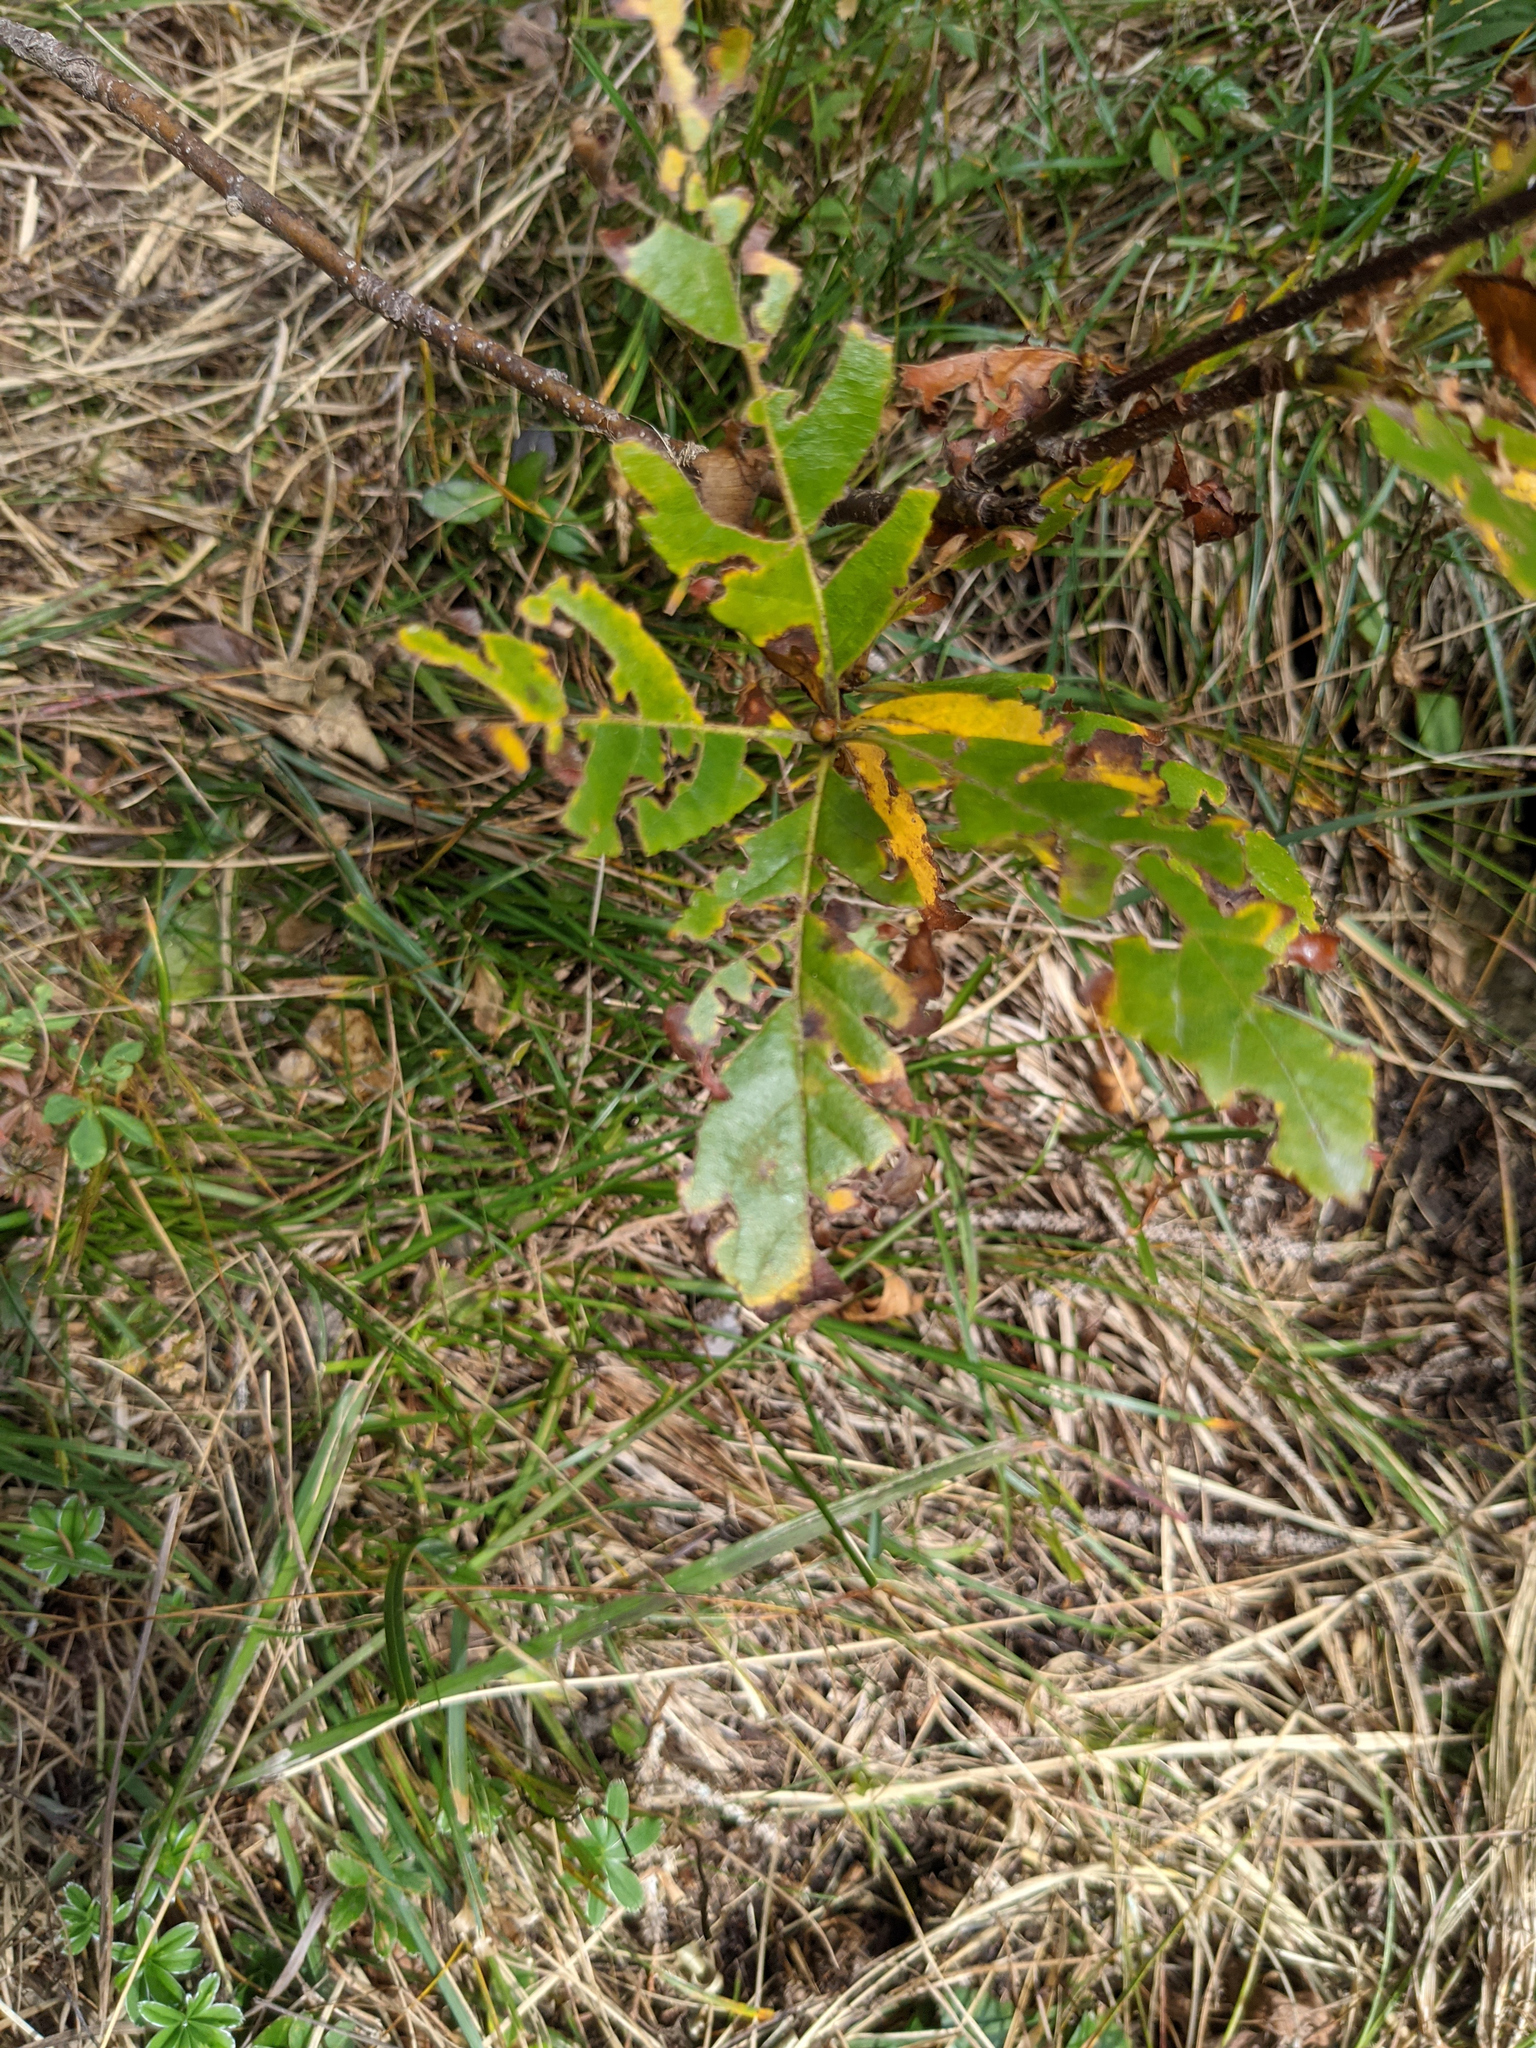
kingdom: Plantae
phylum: Tracheophyta
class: Magnoliopsida
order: Rosales
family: Rosaceae
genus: Chamaemespilus
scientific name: Chamaemespilus alpina
